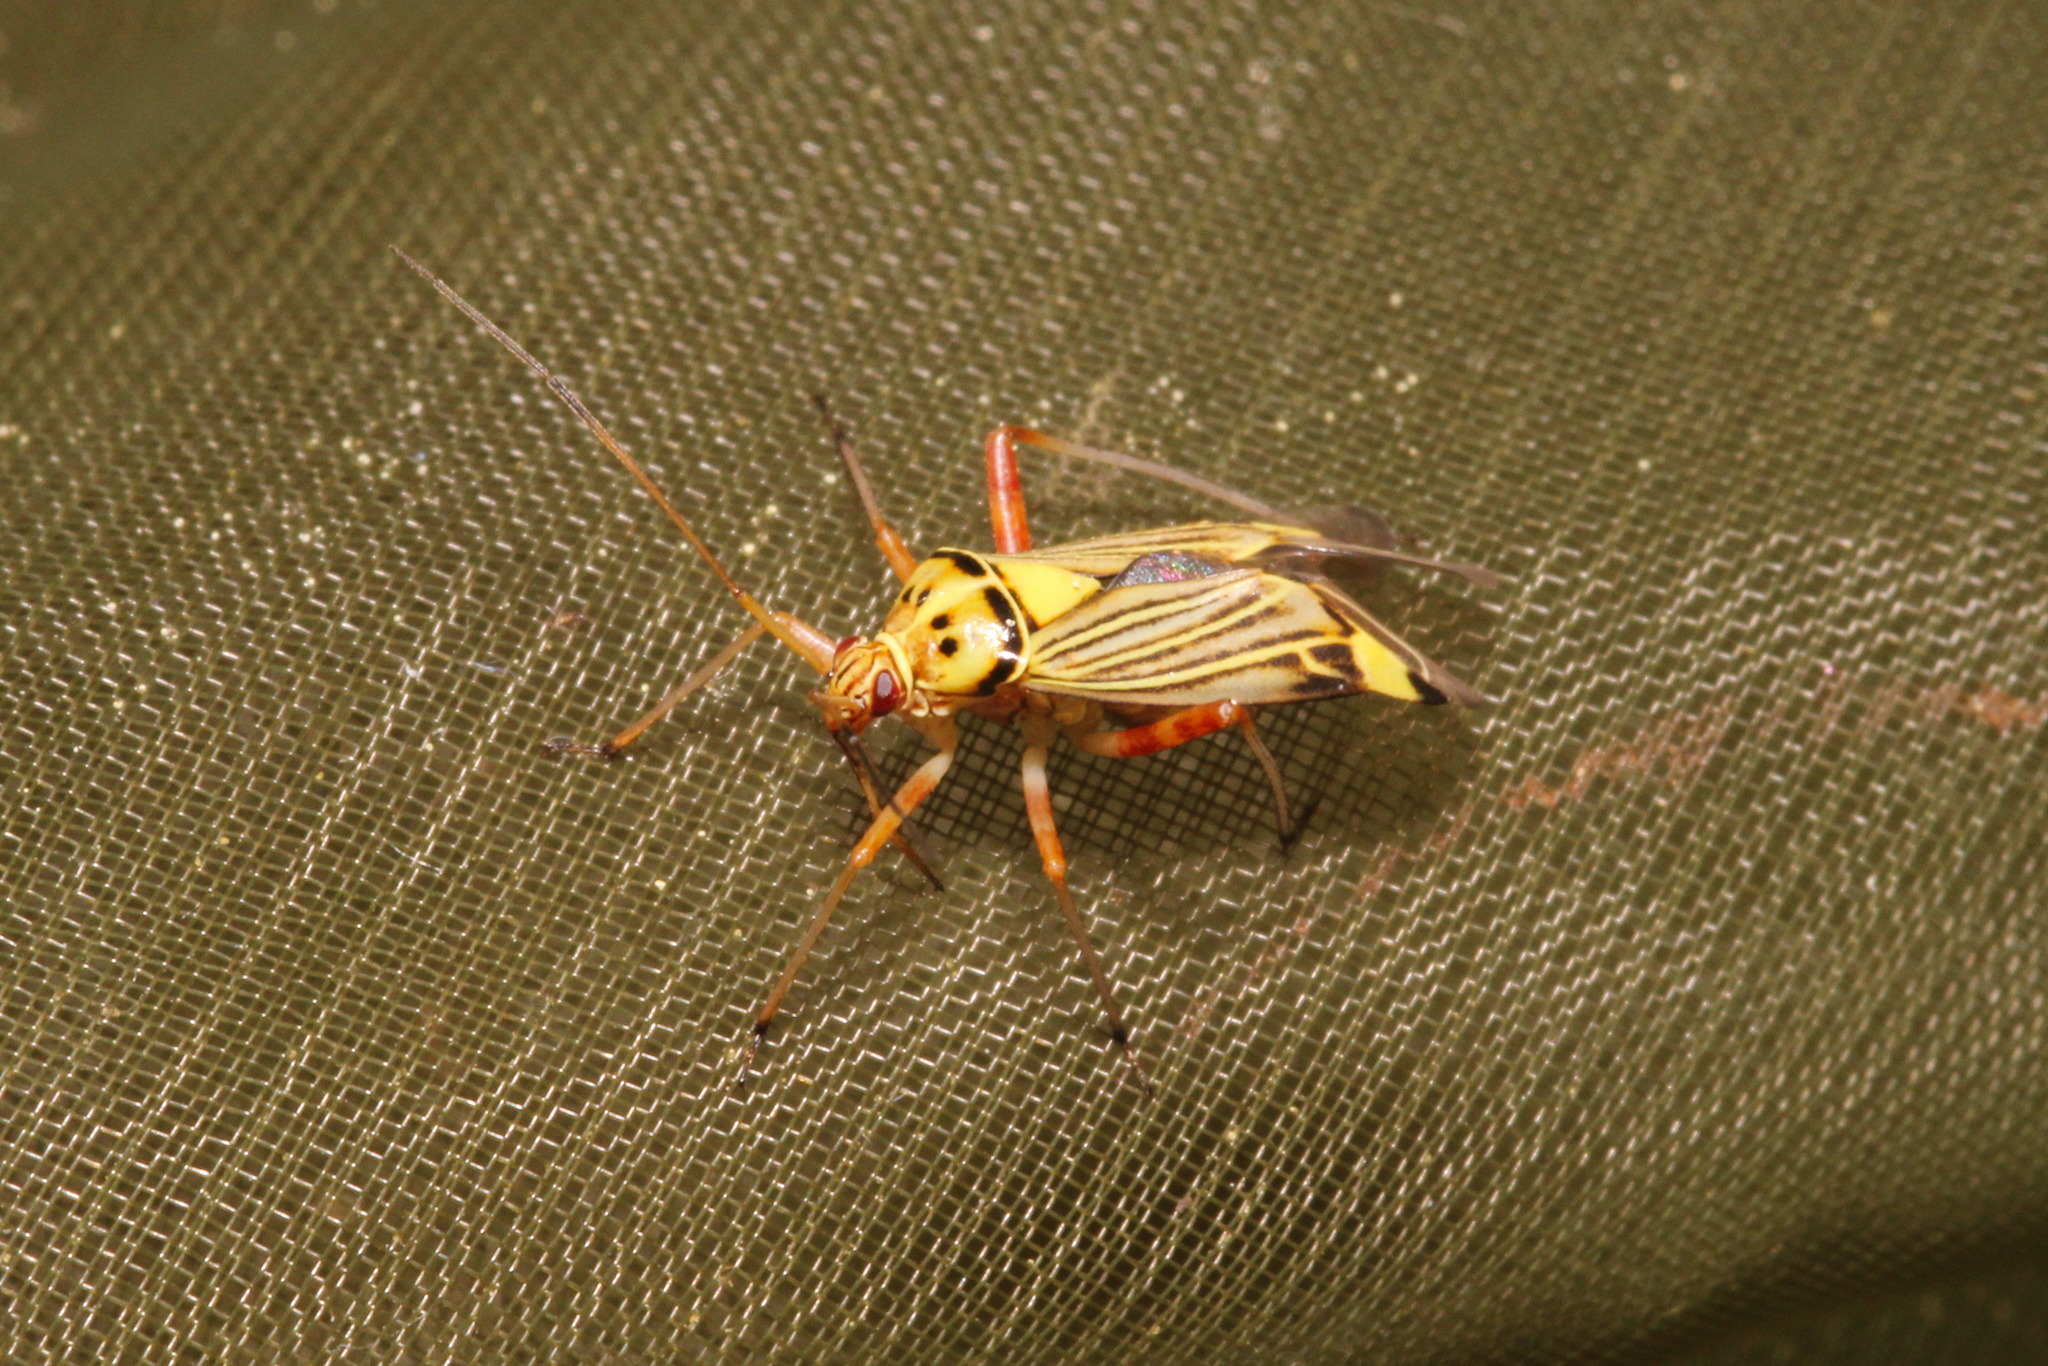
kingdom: Animalia
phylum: Arthropoda
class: Insecta
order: Hemiptera
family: Miridae
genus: Rhabdomiris
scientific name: Rhabdomiris striatellus
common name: Plant bug
